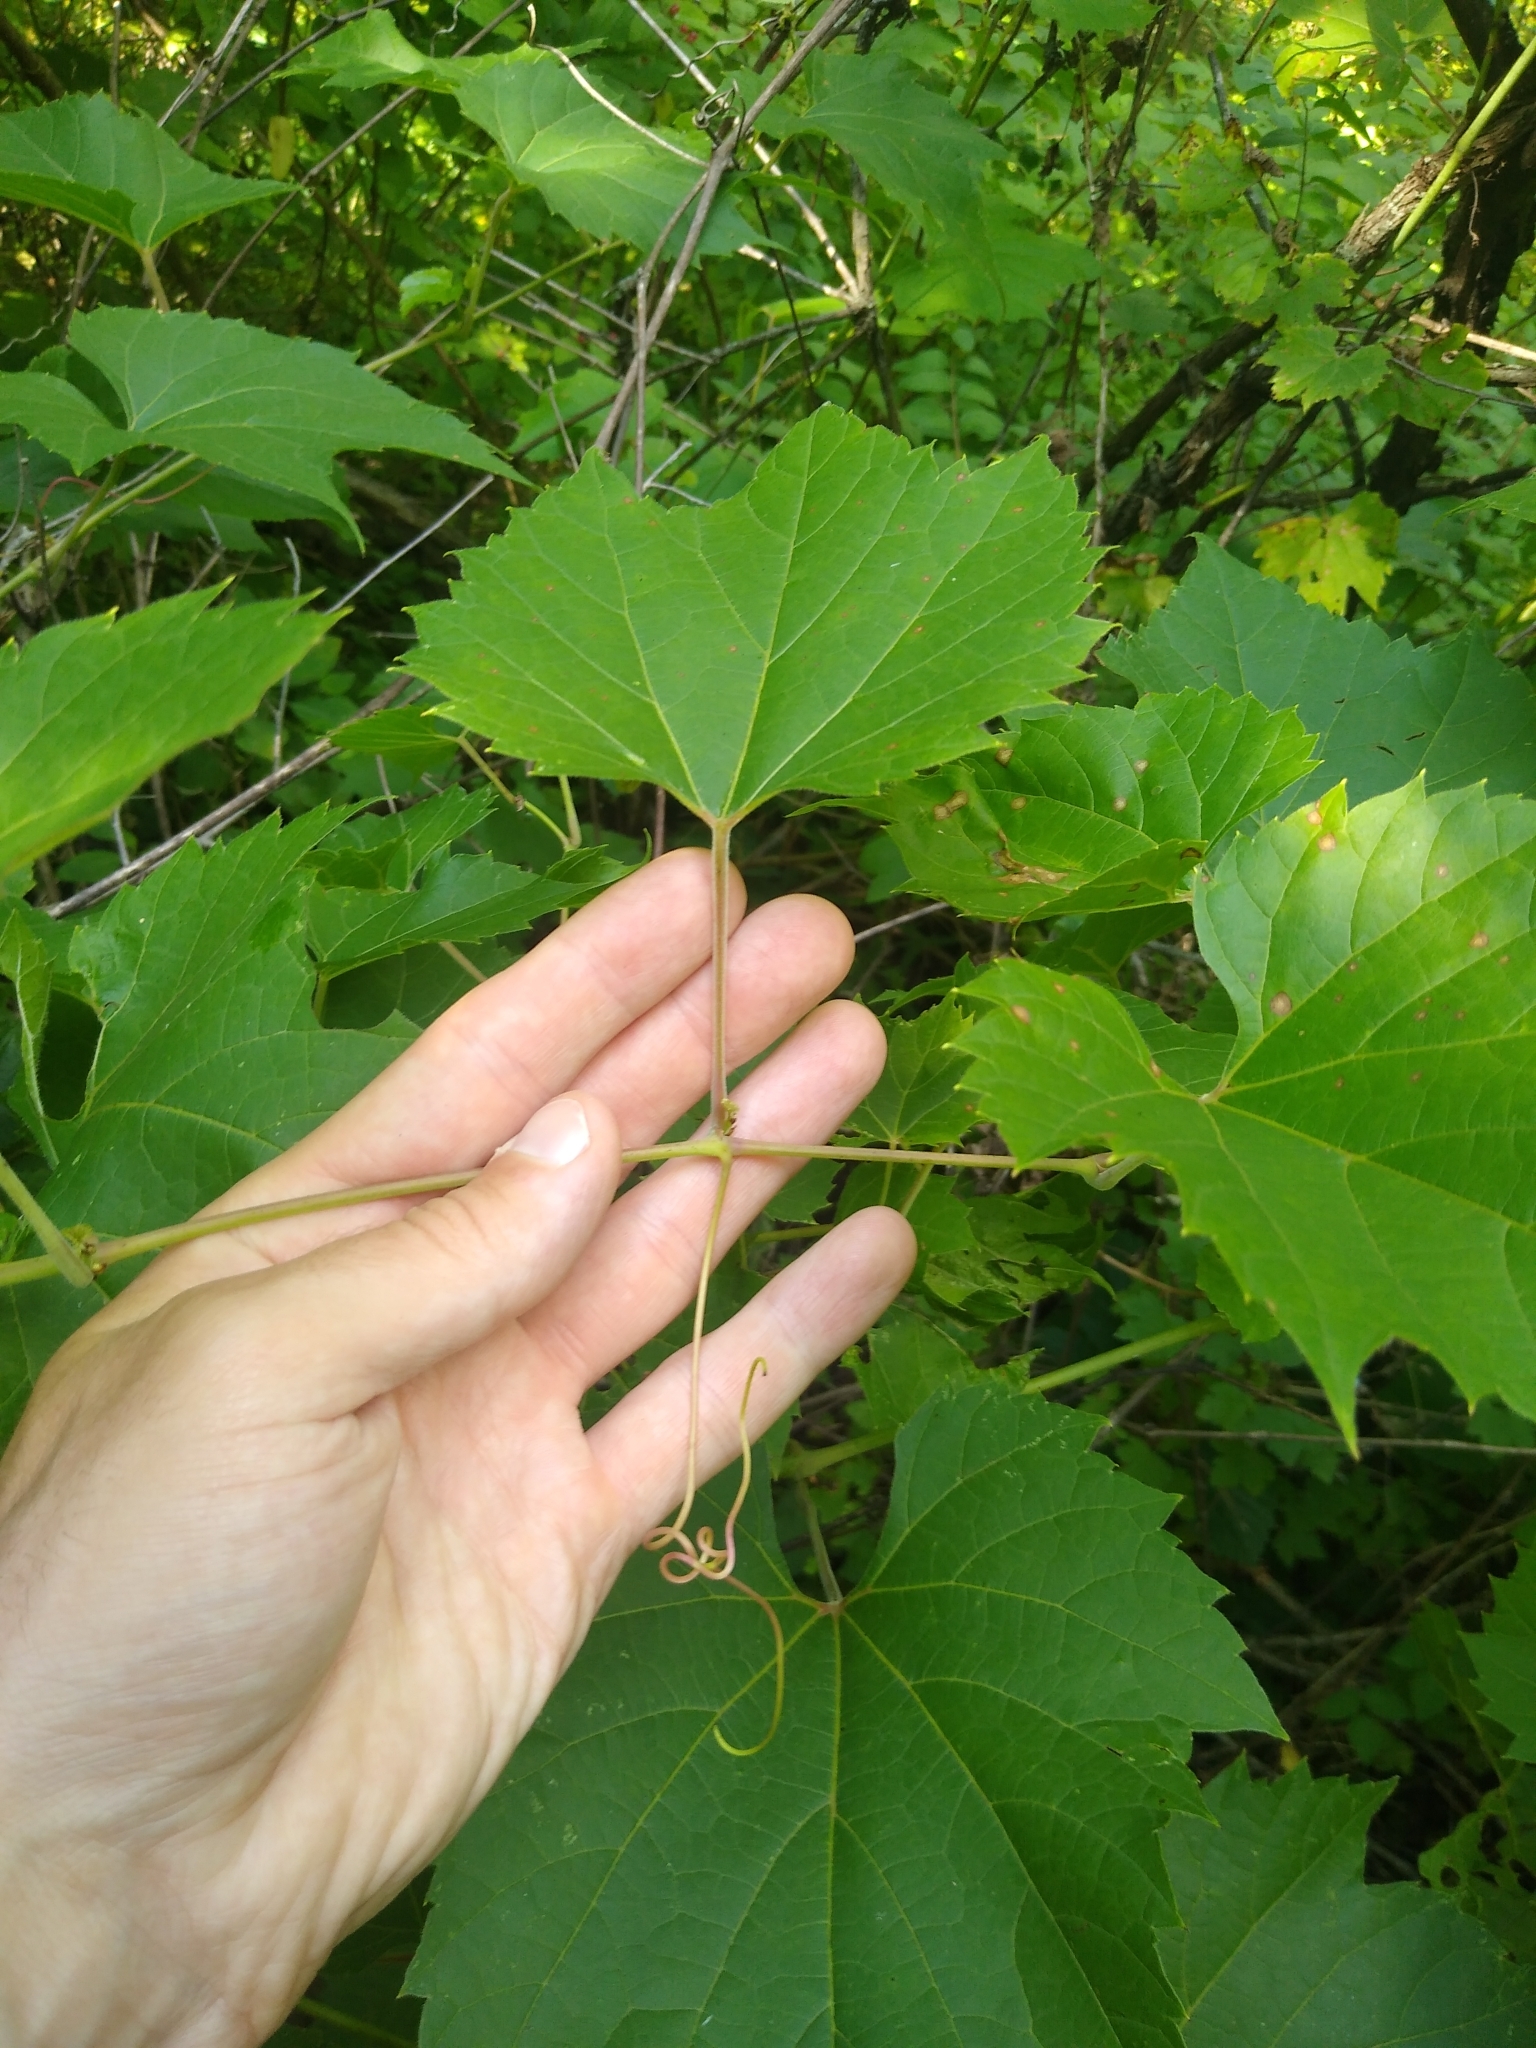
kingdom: Plantae
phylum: Tracheophyta
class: Magnoliopsida
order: Vitales
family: Vitaceae
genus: Vitis
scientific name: Vitis riparia
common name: Frost grape
